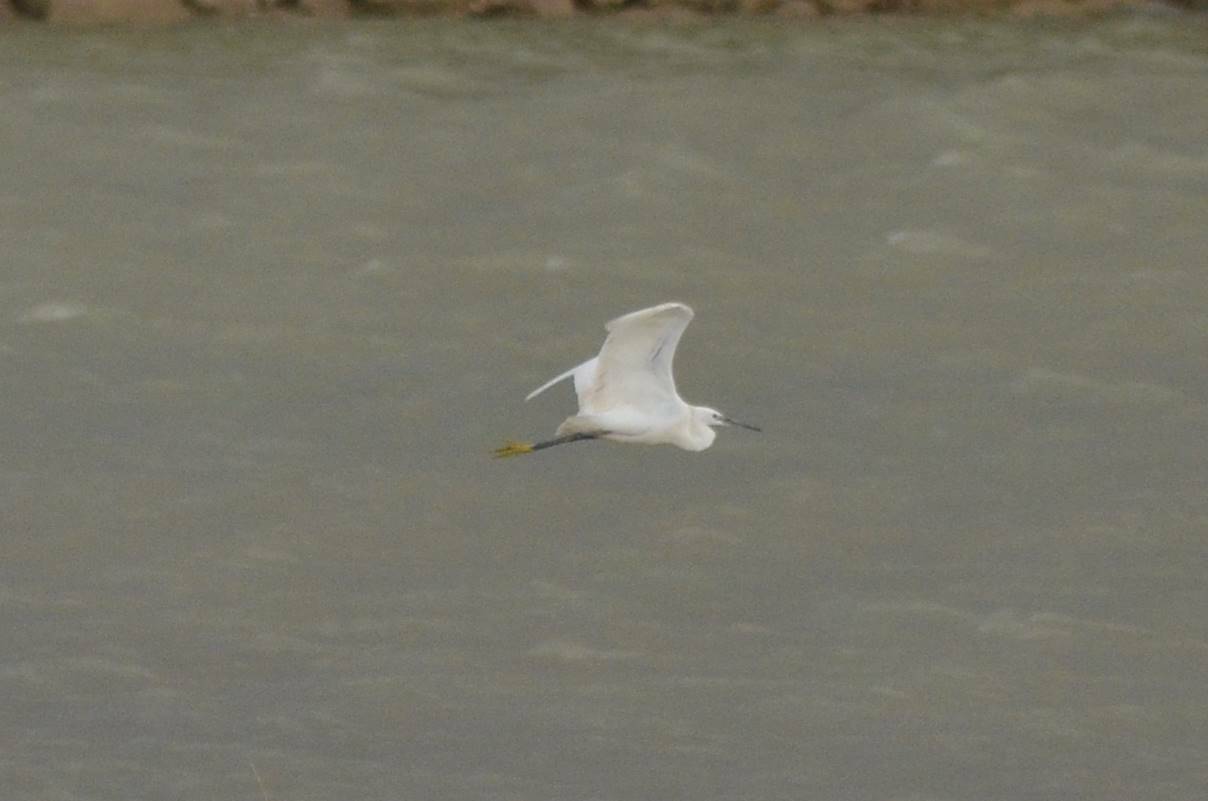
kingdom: Animalia
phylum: Chordata
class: Aves
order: Pelecaniformes
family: Ardeidae
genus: Egretta
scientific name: Egretta garzetta
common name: Little egret
